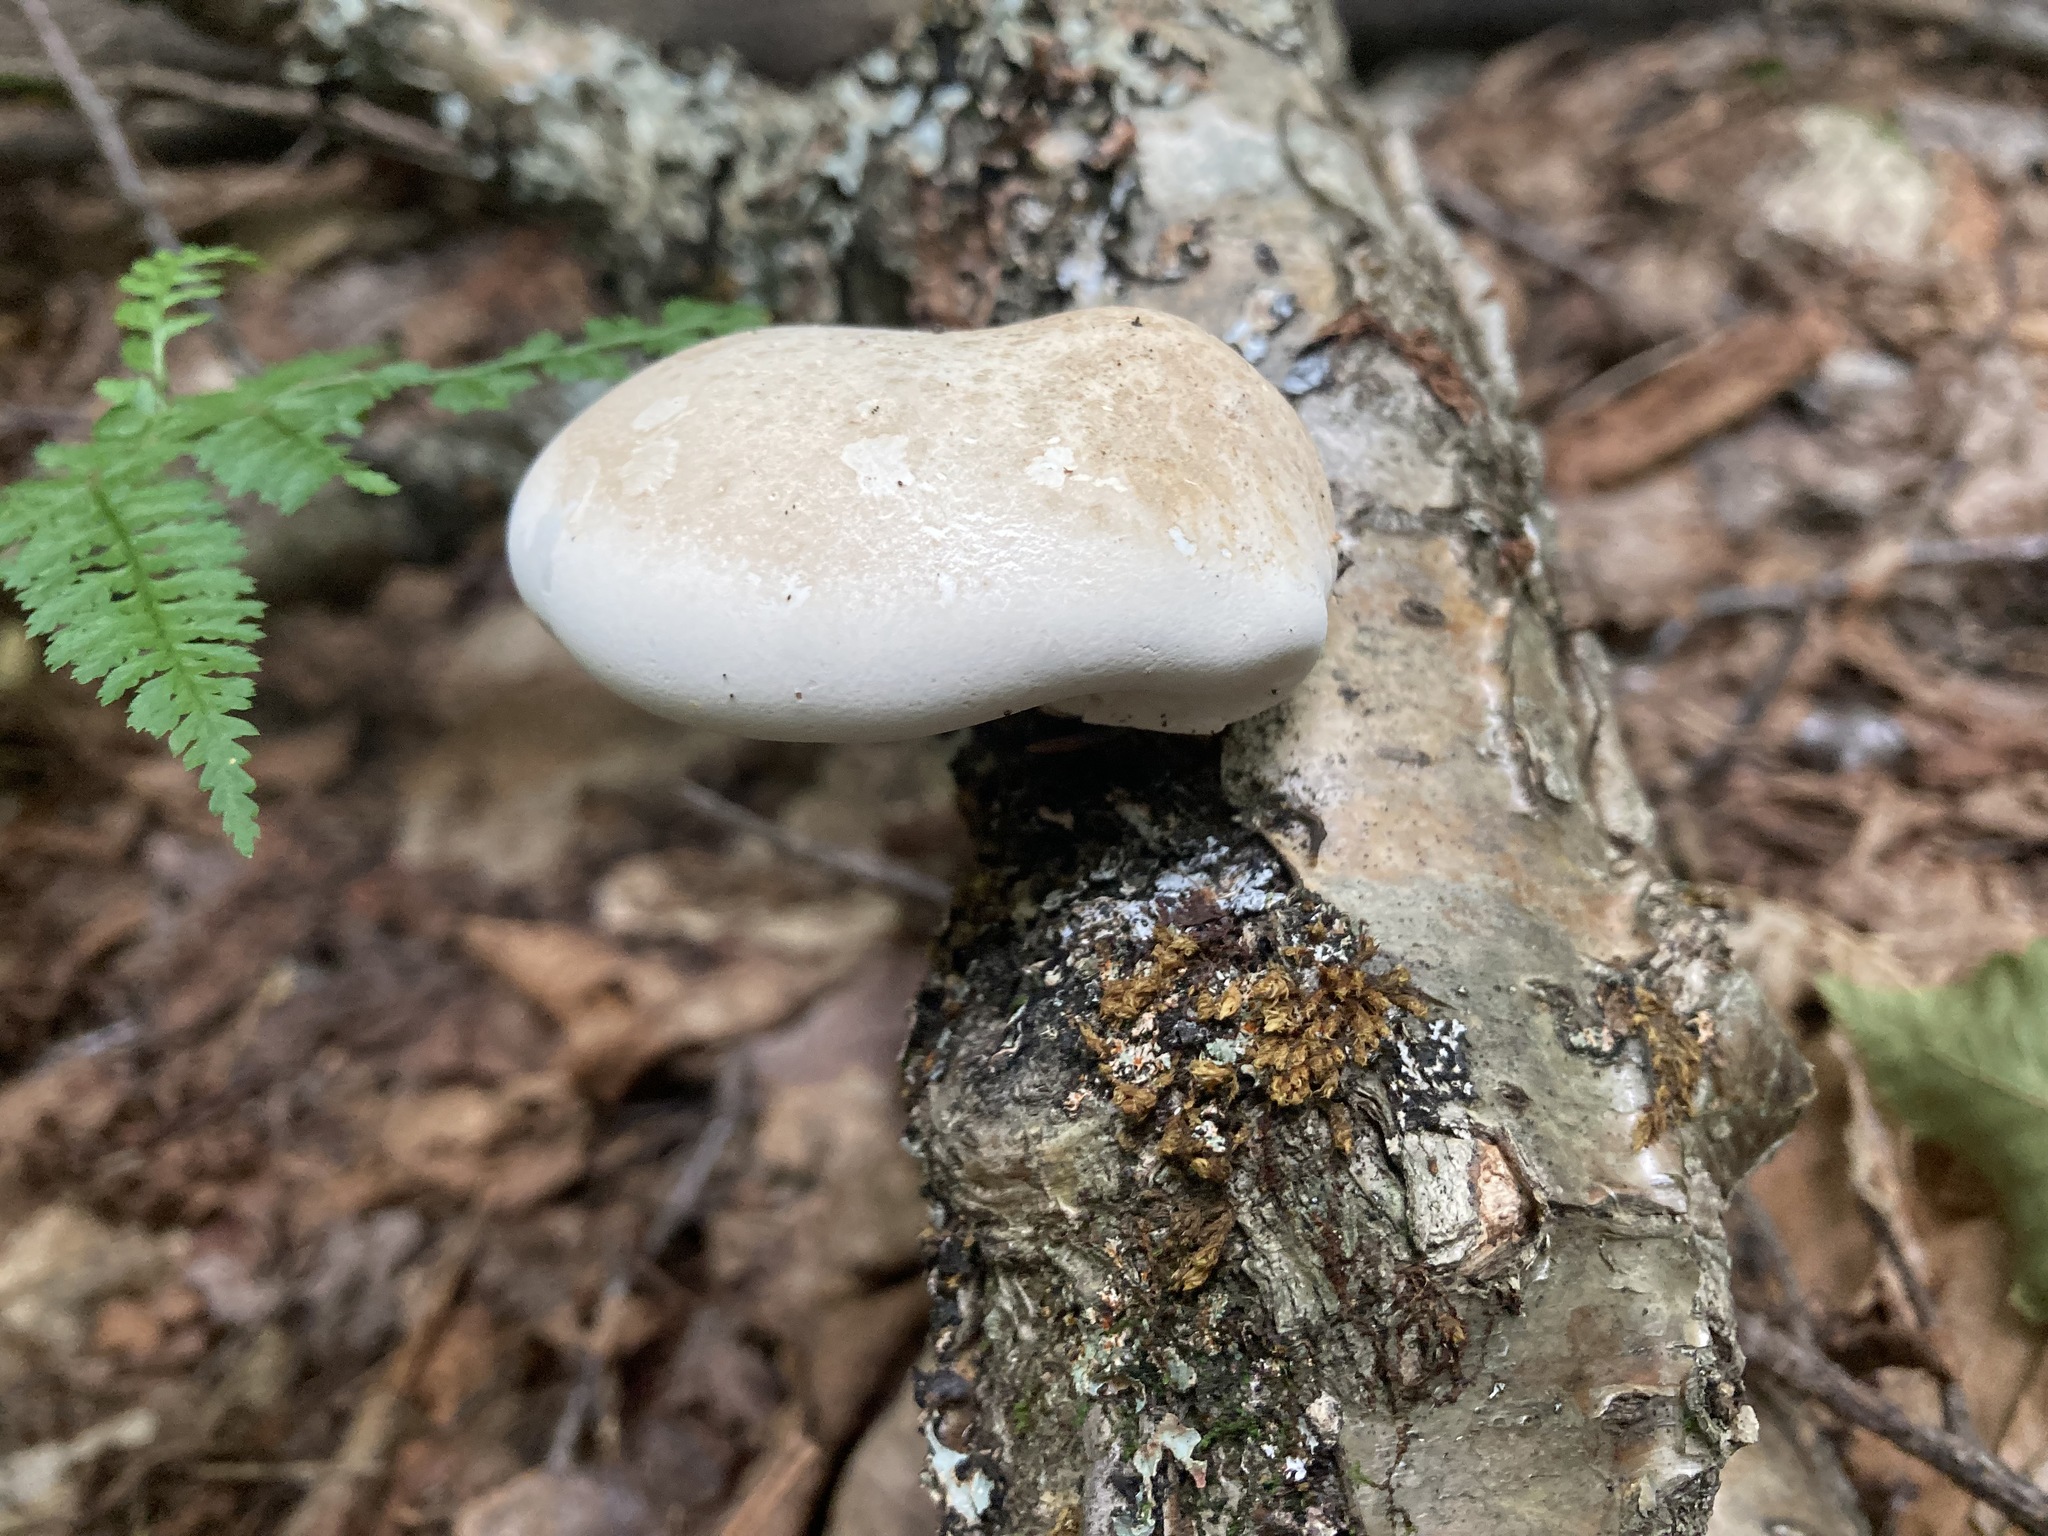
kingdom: Fungi
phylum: Basidiomycota
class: Agaricomycetes
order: Polyporales
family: Fomitopsidaceae
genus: Fomitopsis
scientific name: Fomitopsis betulina
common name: Birch polypore
